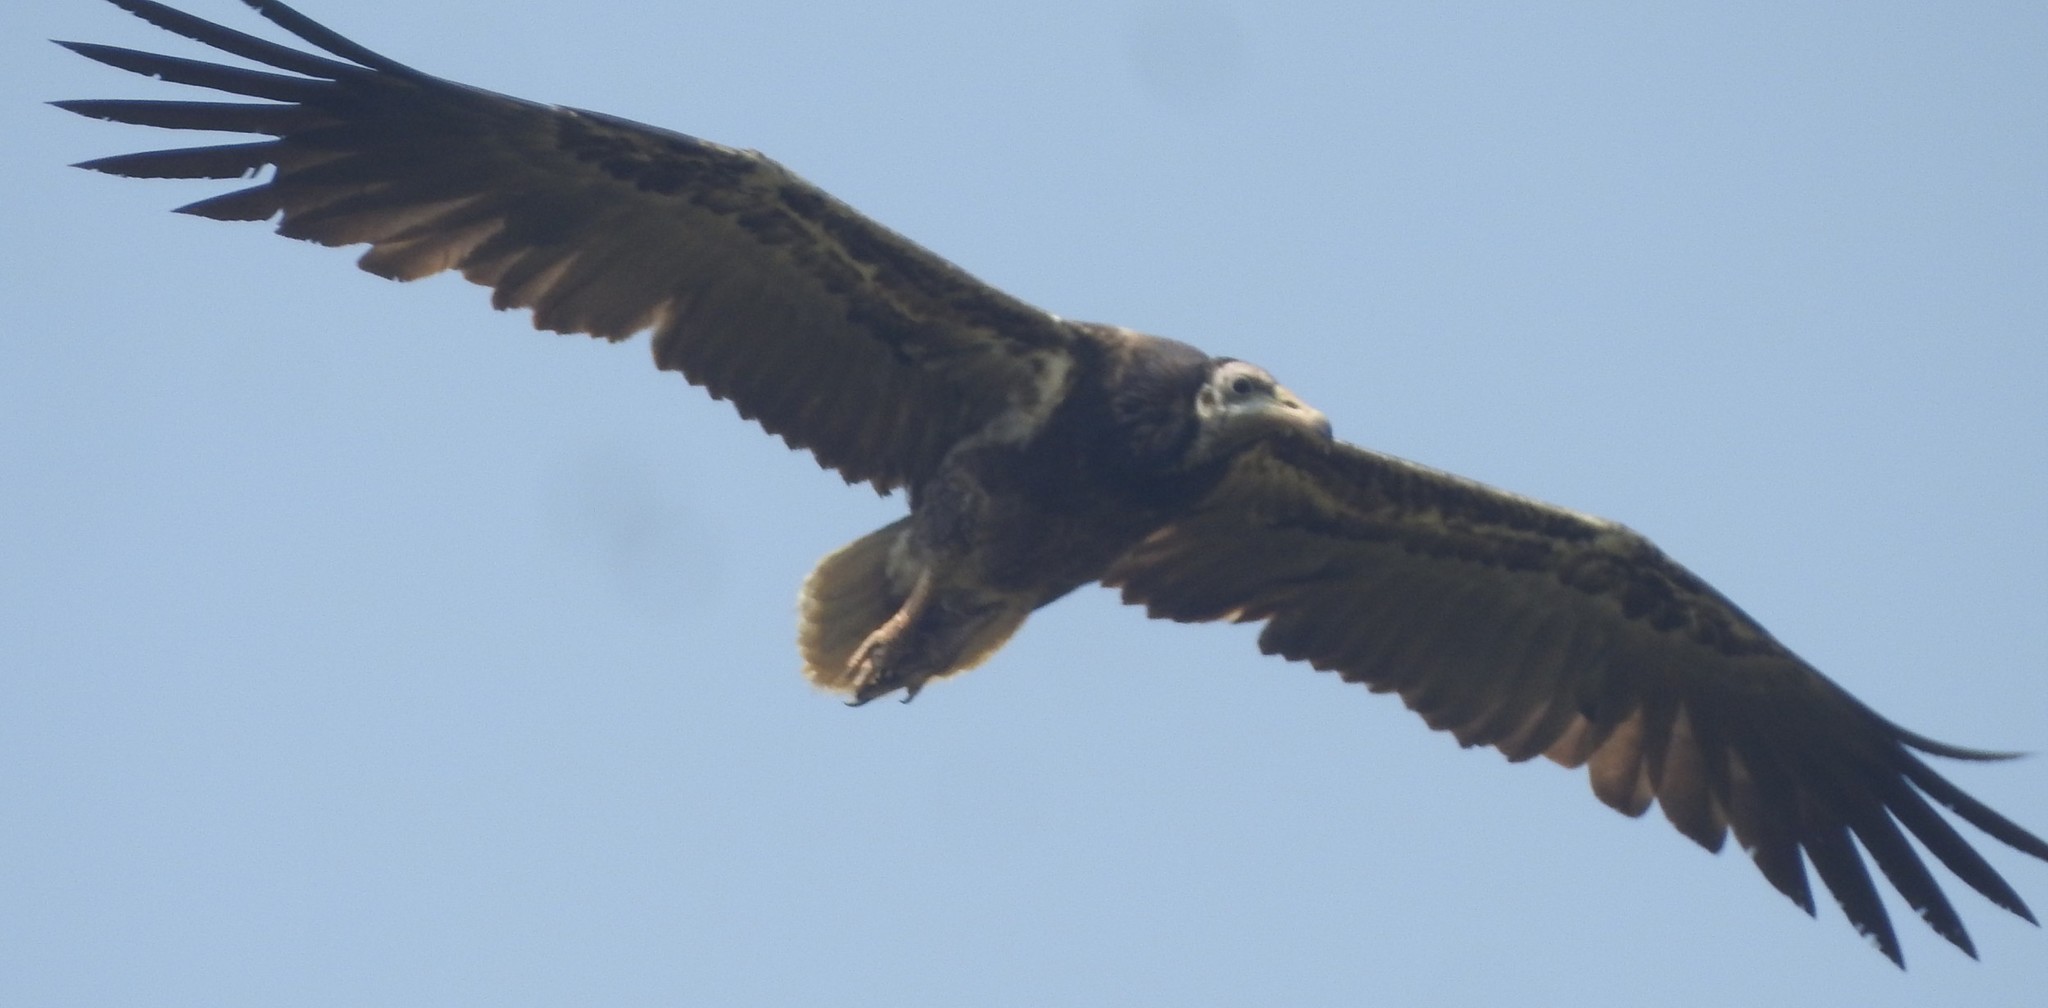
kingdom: Animalia
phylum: Chordata
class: Aves
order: Accipitriformes
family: Accipitridae
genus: Neophron
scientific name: Neophron percnopterus
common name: Egyptian vulture
